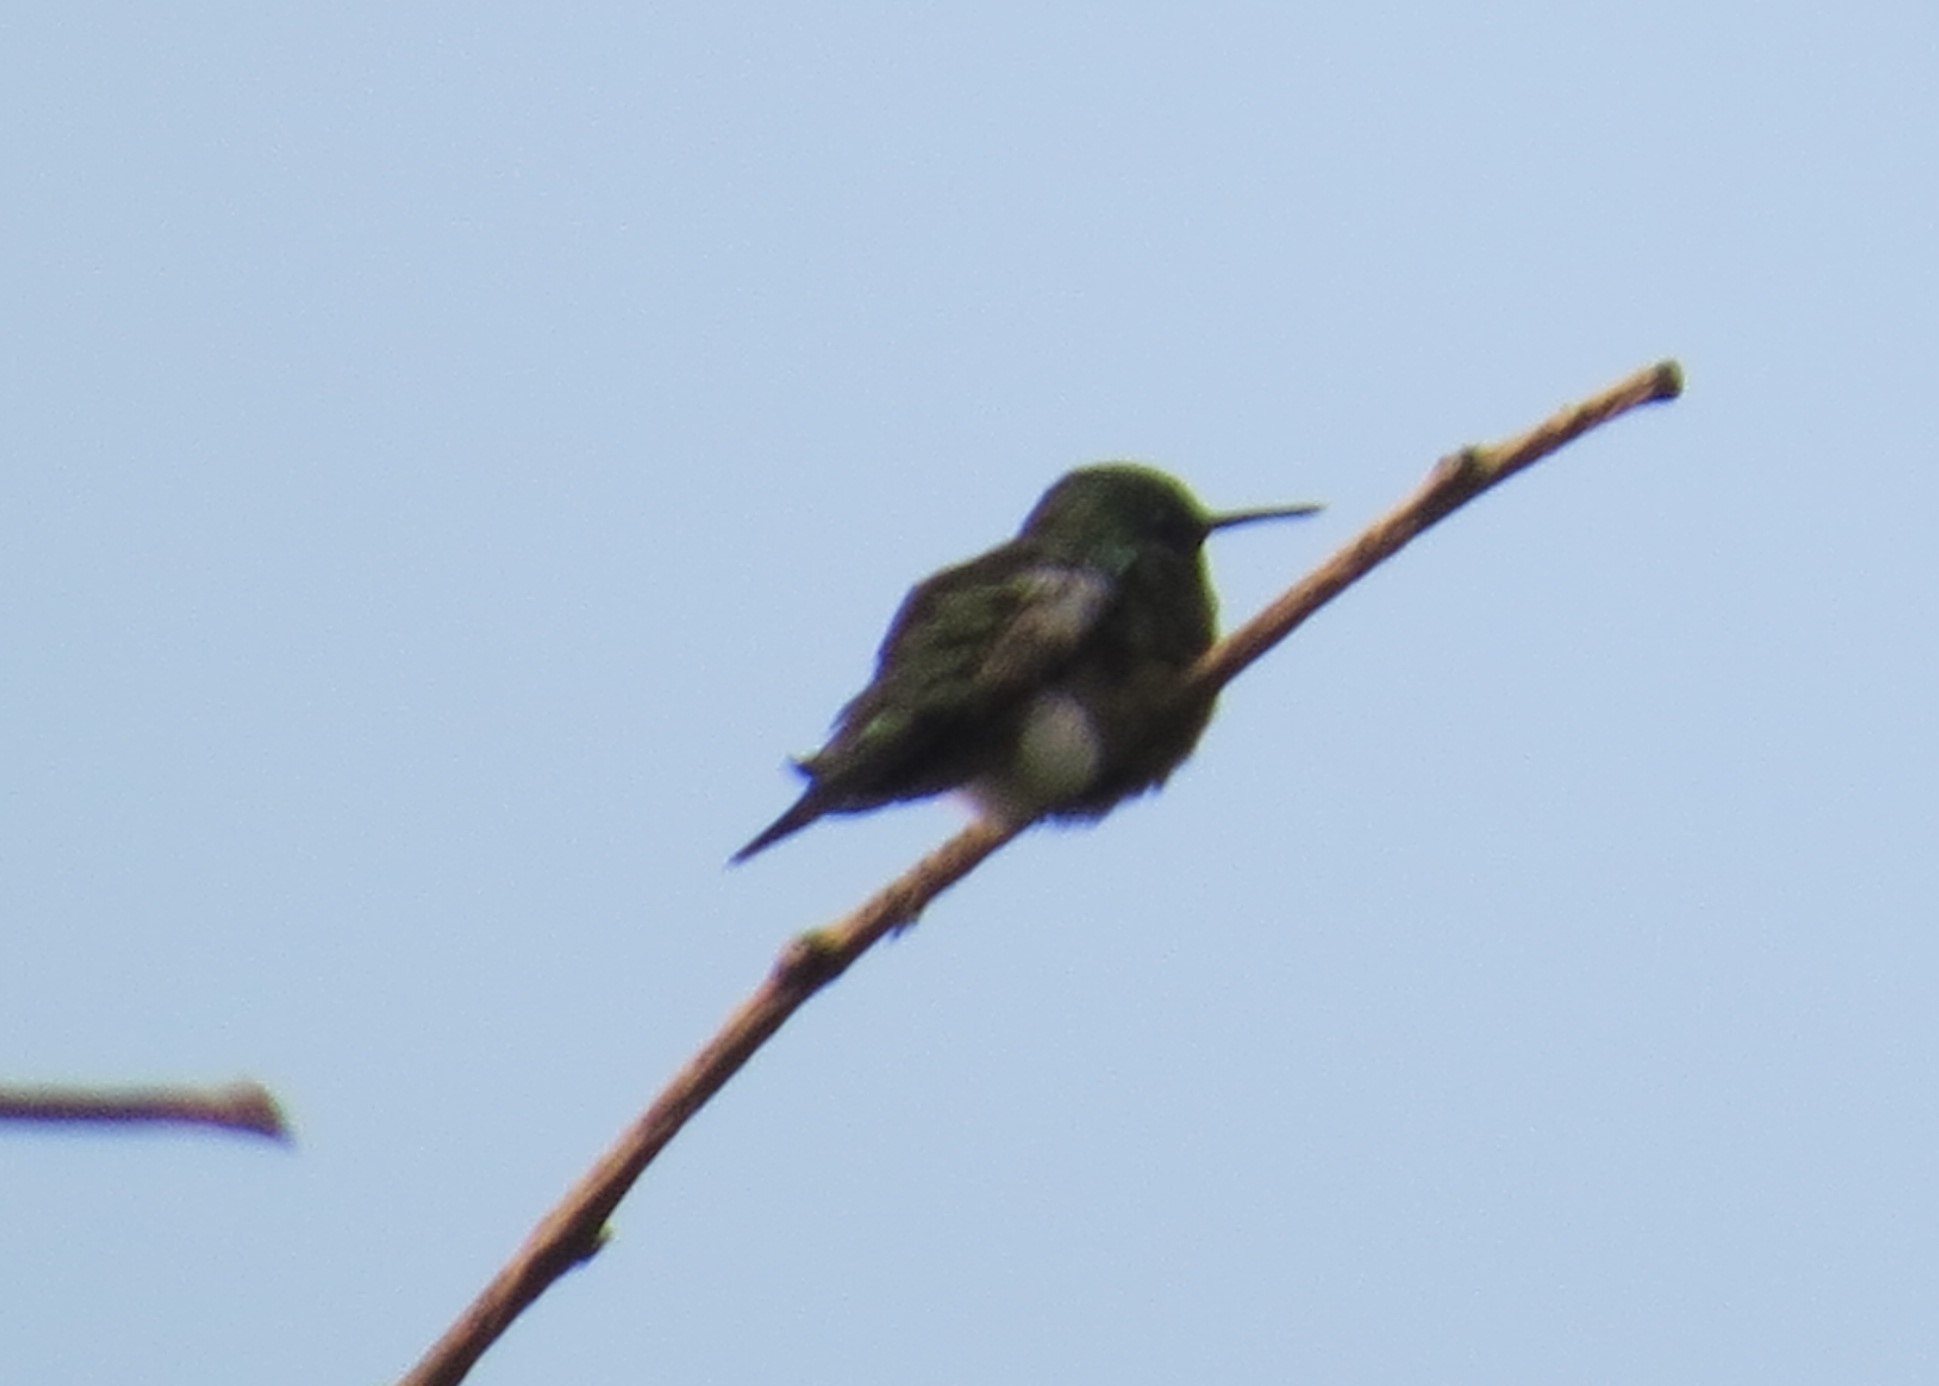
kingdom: Animalia
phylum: Chordata
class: Aves
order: Apodiformes
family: Trochilidae
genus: Archilochus
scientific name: Archilochus colubris
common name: Ruby-throated hummingbird
